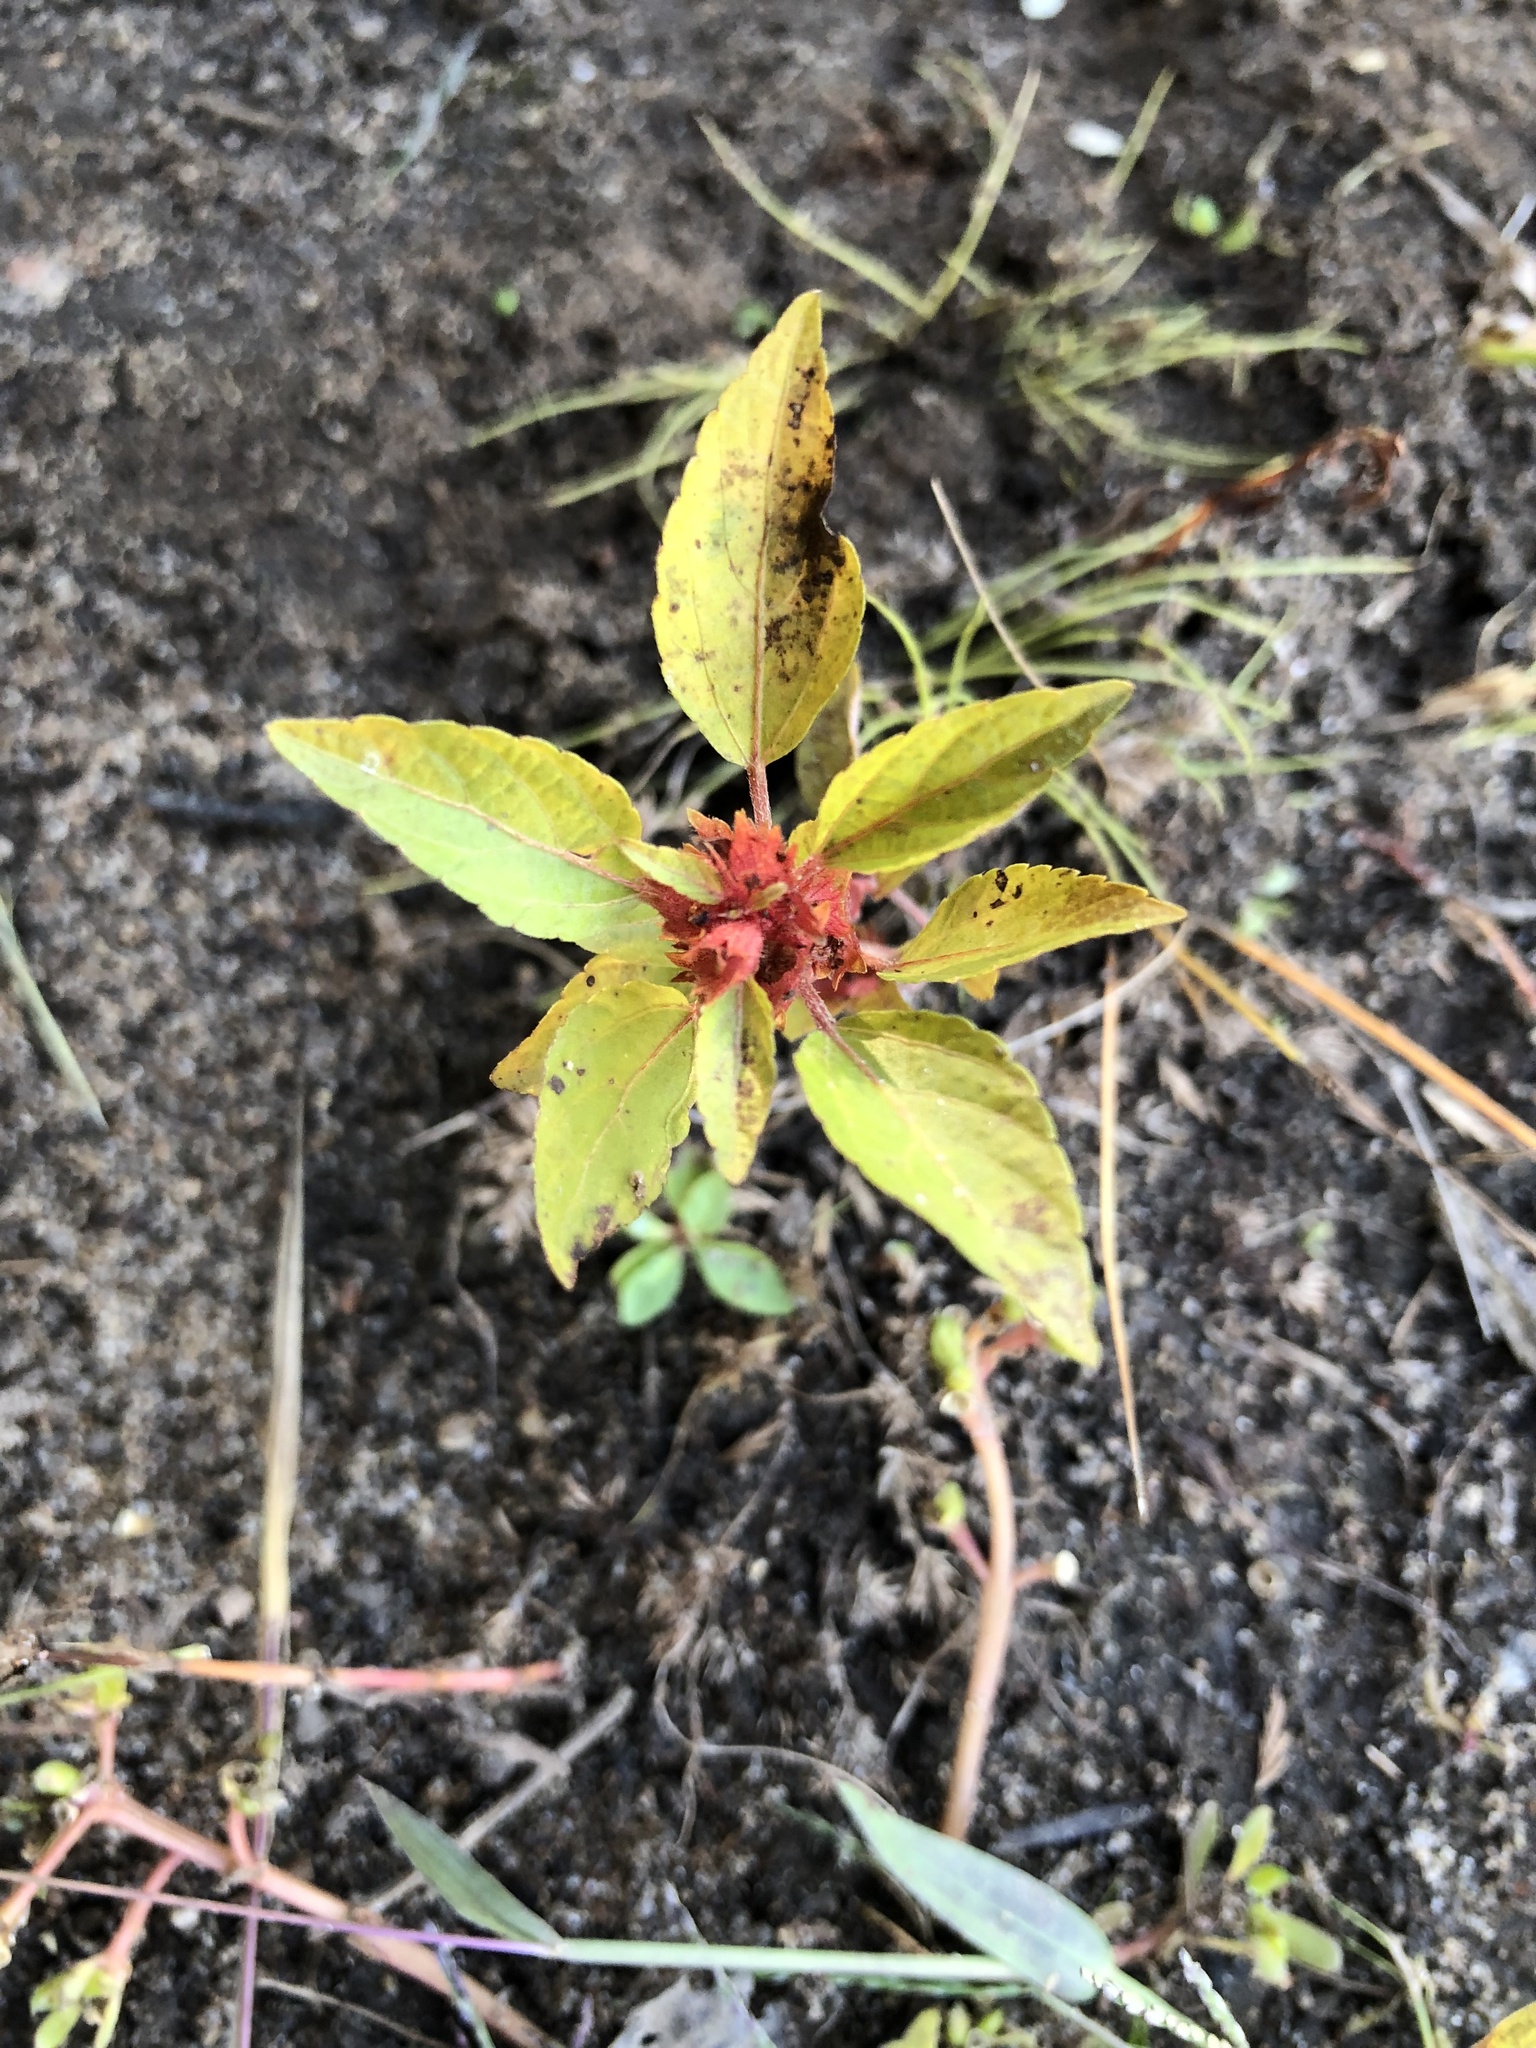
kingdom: Plantae
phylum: Tracheophyta
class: Magnoliopsida
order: Malpighiales
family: Euphorbiaceae
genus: Acalypha
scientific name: Acalypha rhomboidea
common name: Rhombic copperleaf
